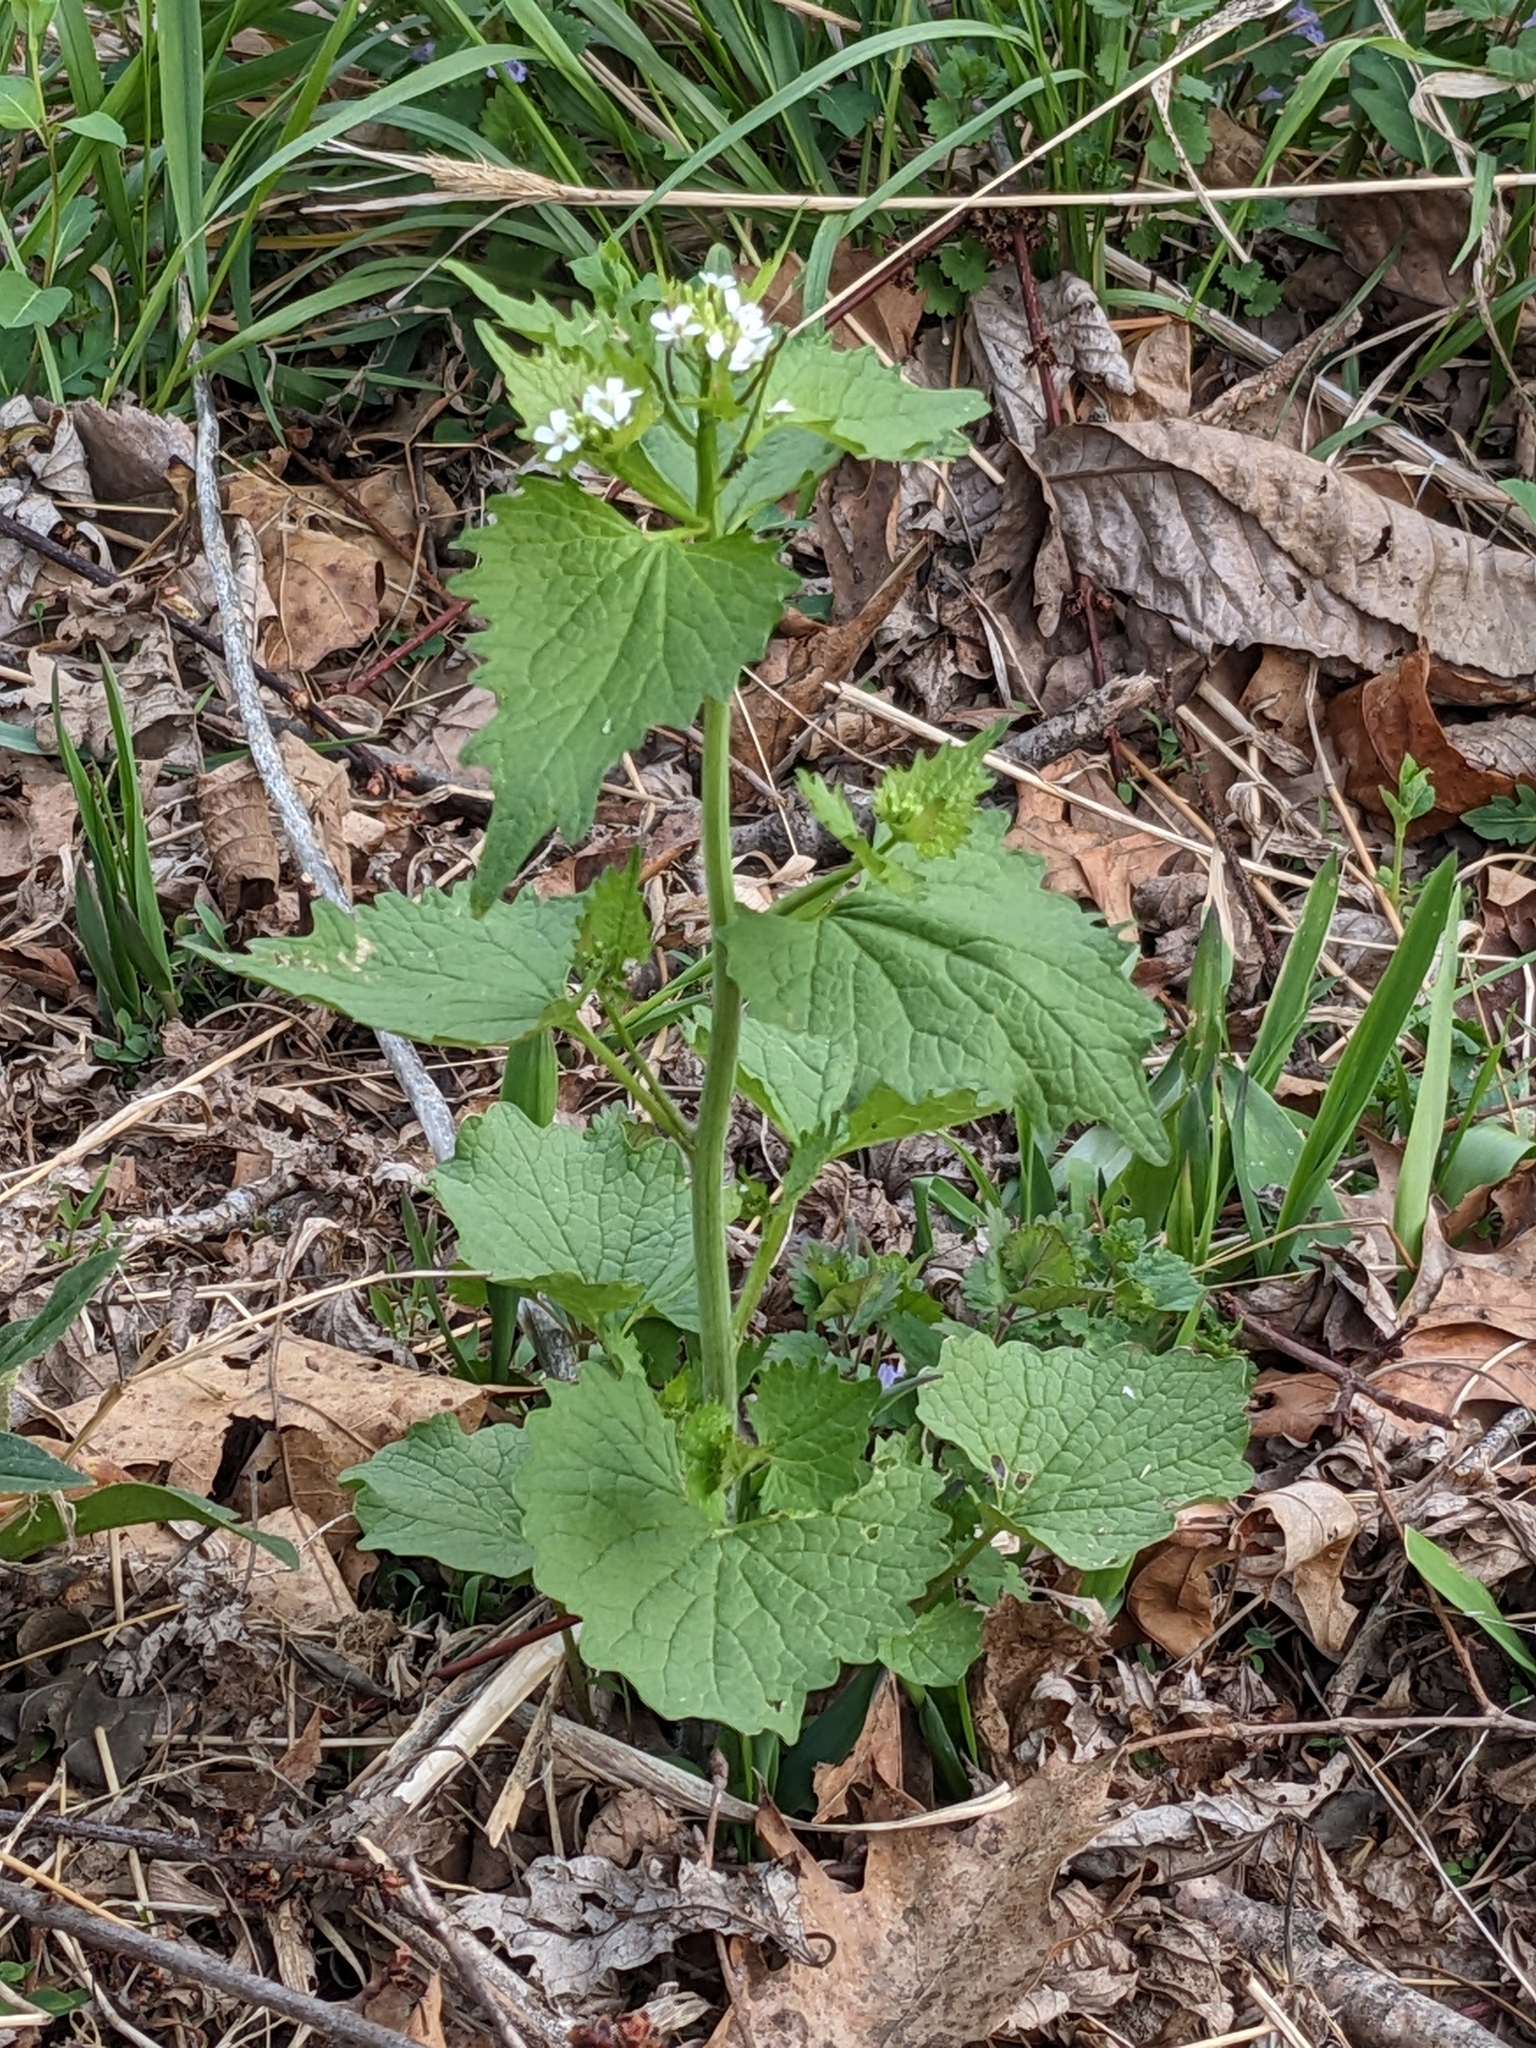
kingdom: Plantae
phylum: Tracheophyta
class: Magnoliopsida
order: Brassicales
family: Brassicaceae
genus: Alliaria
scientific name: Alliaria petiolata
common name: Garlic mustard
